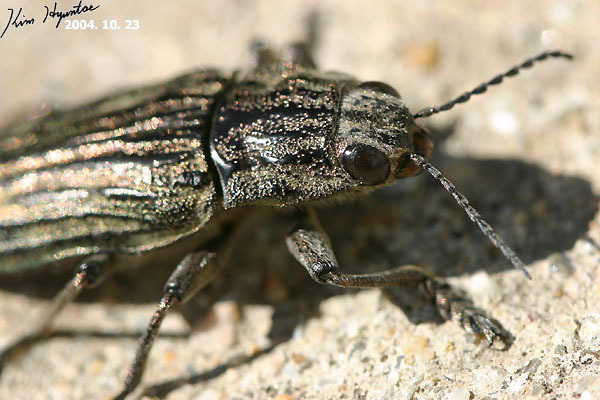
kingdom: Animalia
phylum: Arthropoda
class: Insecta
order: Coleoptera
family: Buprestidae
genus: Chalcophora
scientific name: Chalcophora japonica
